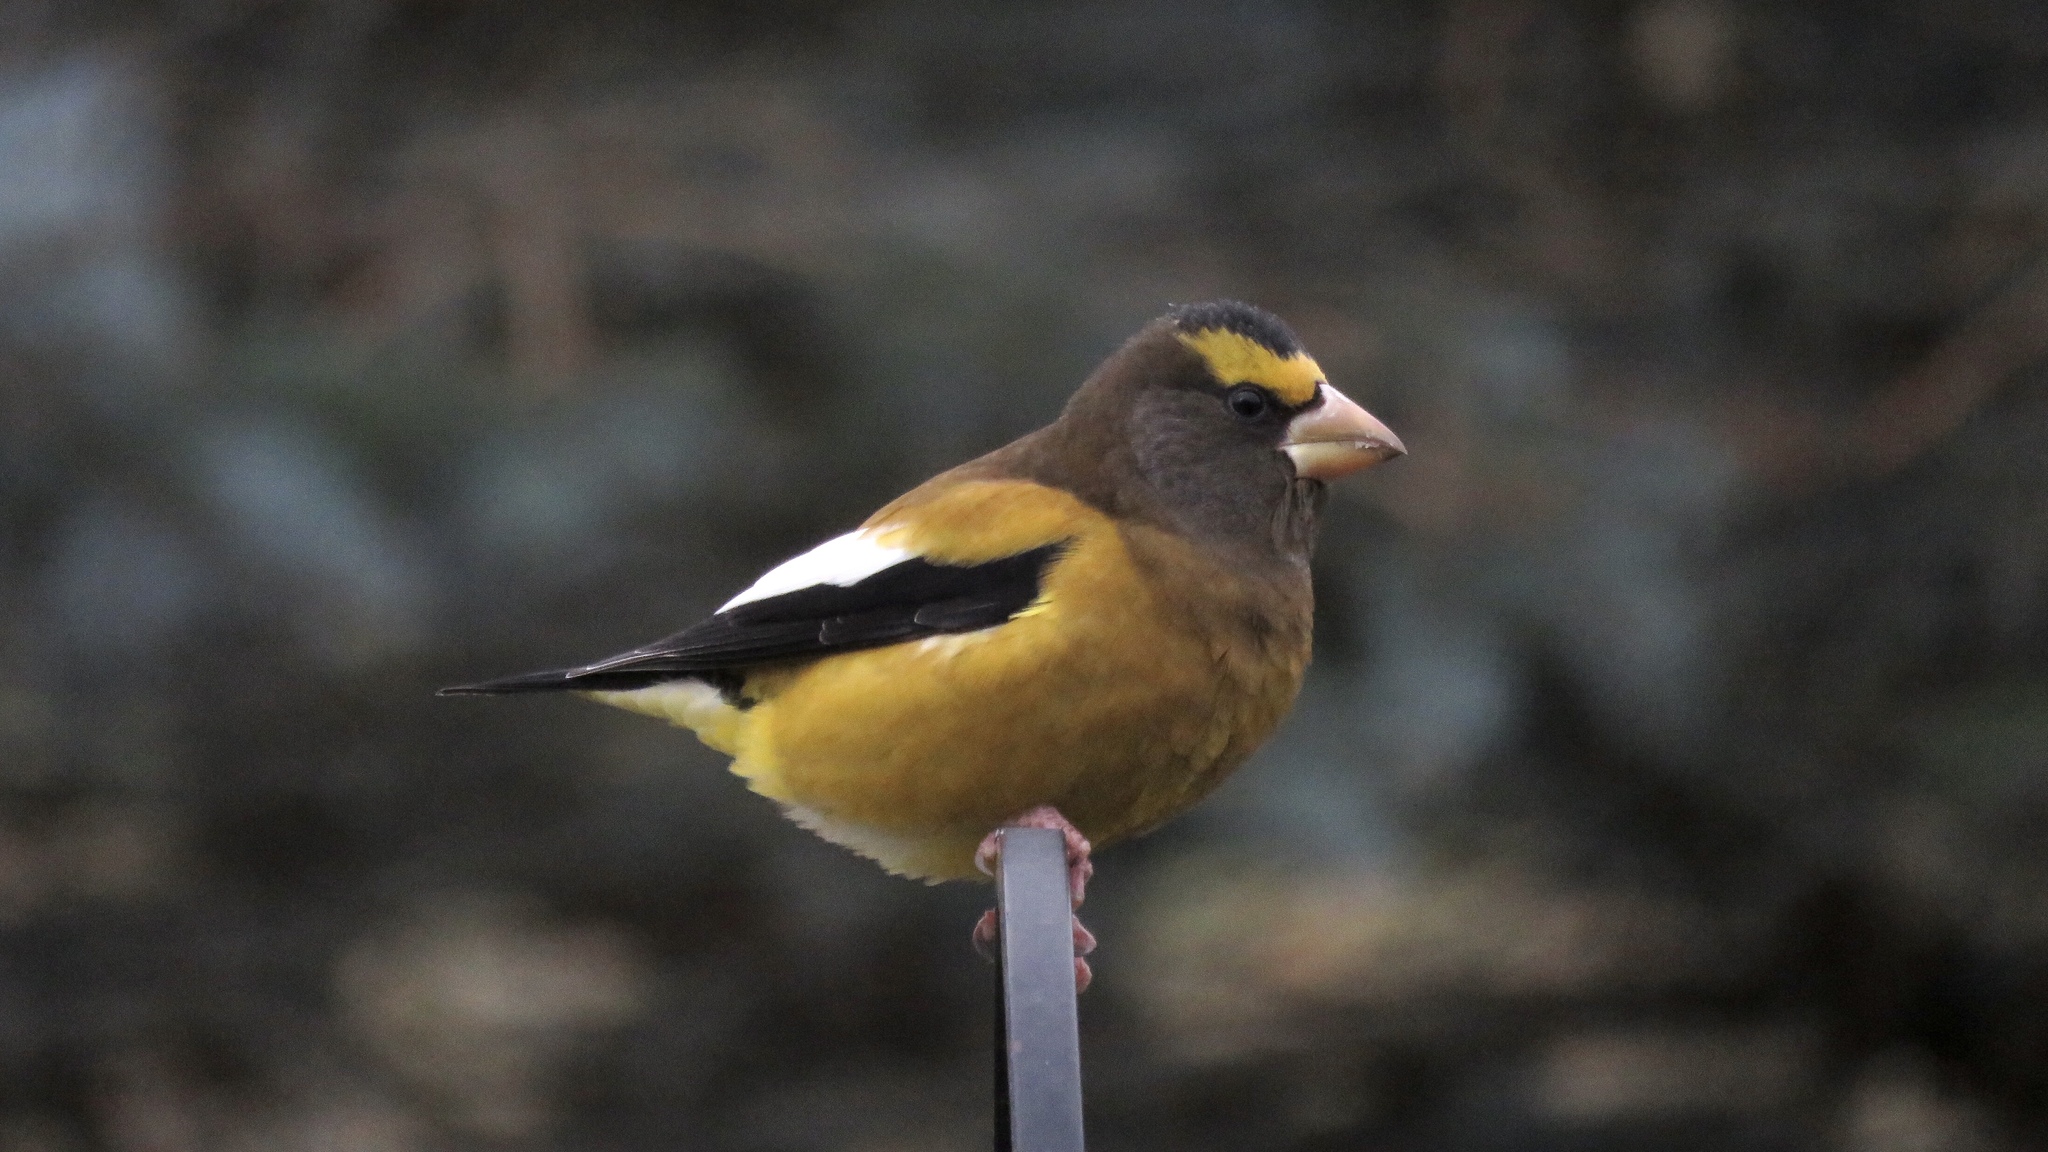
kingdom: Animalia
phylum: Chordata
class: Aves
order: Passeriformes
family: Fringillidae
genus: Hesperiphona
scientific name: Hesperiphona vespertina
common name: Evening grosbeak
